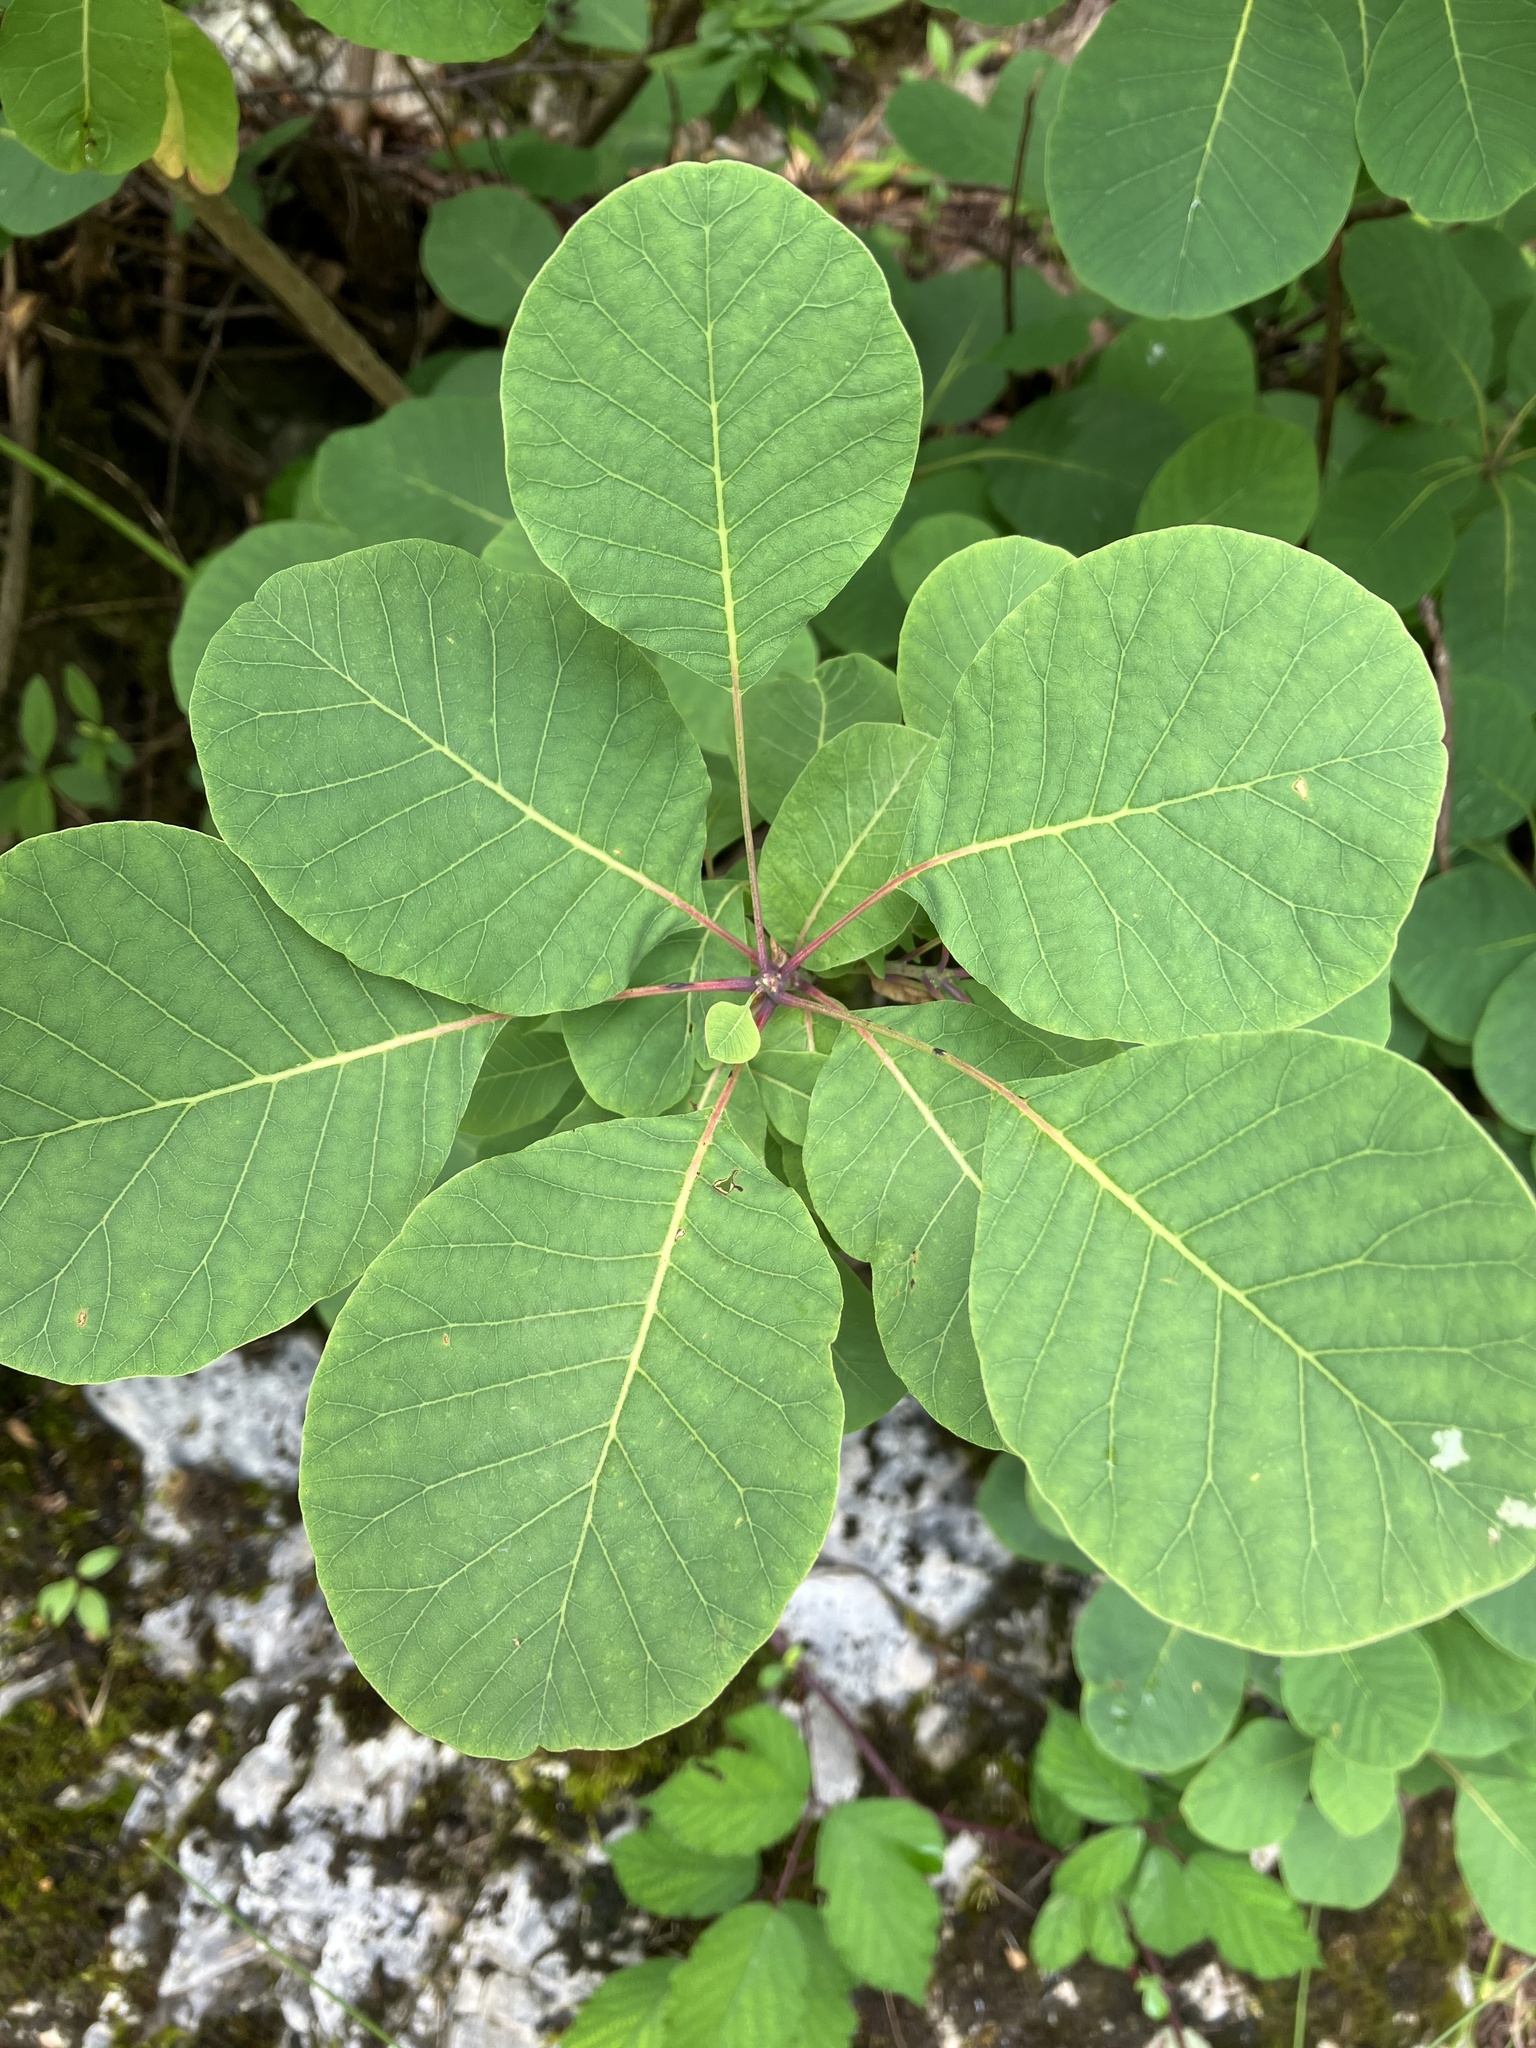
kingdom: Plantae
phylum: Tracheophyta
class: Magnoliopsida
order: Sapindales
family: Anacardiaceae
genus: Cotinus
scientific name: Cotinus coggygria
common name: Smoke-tree
